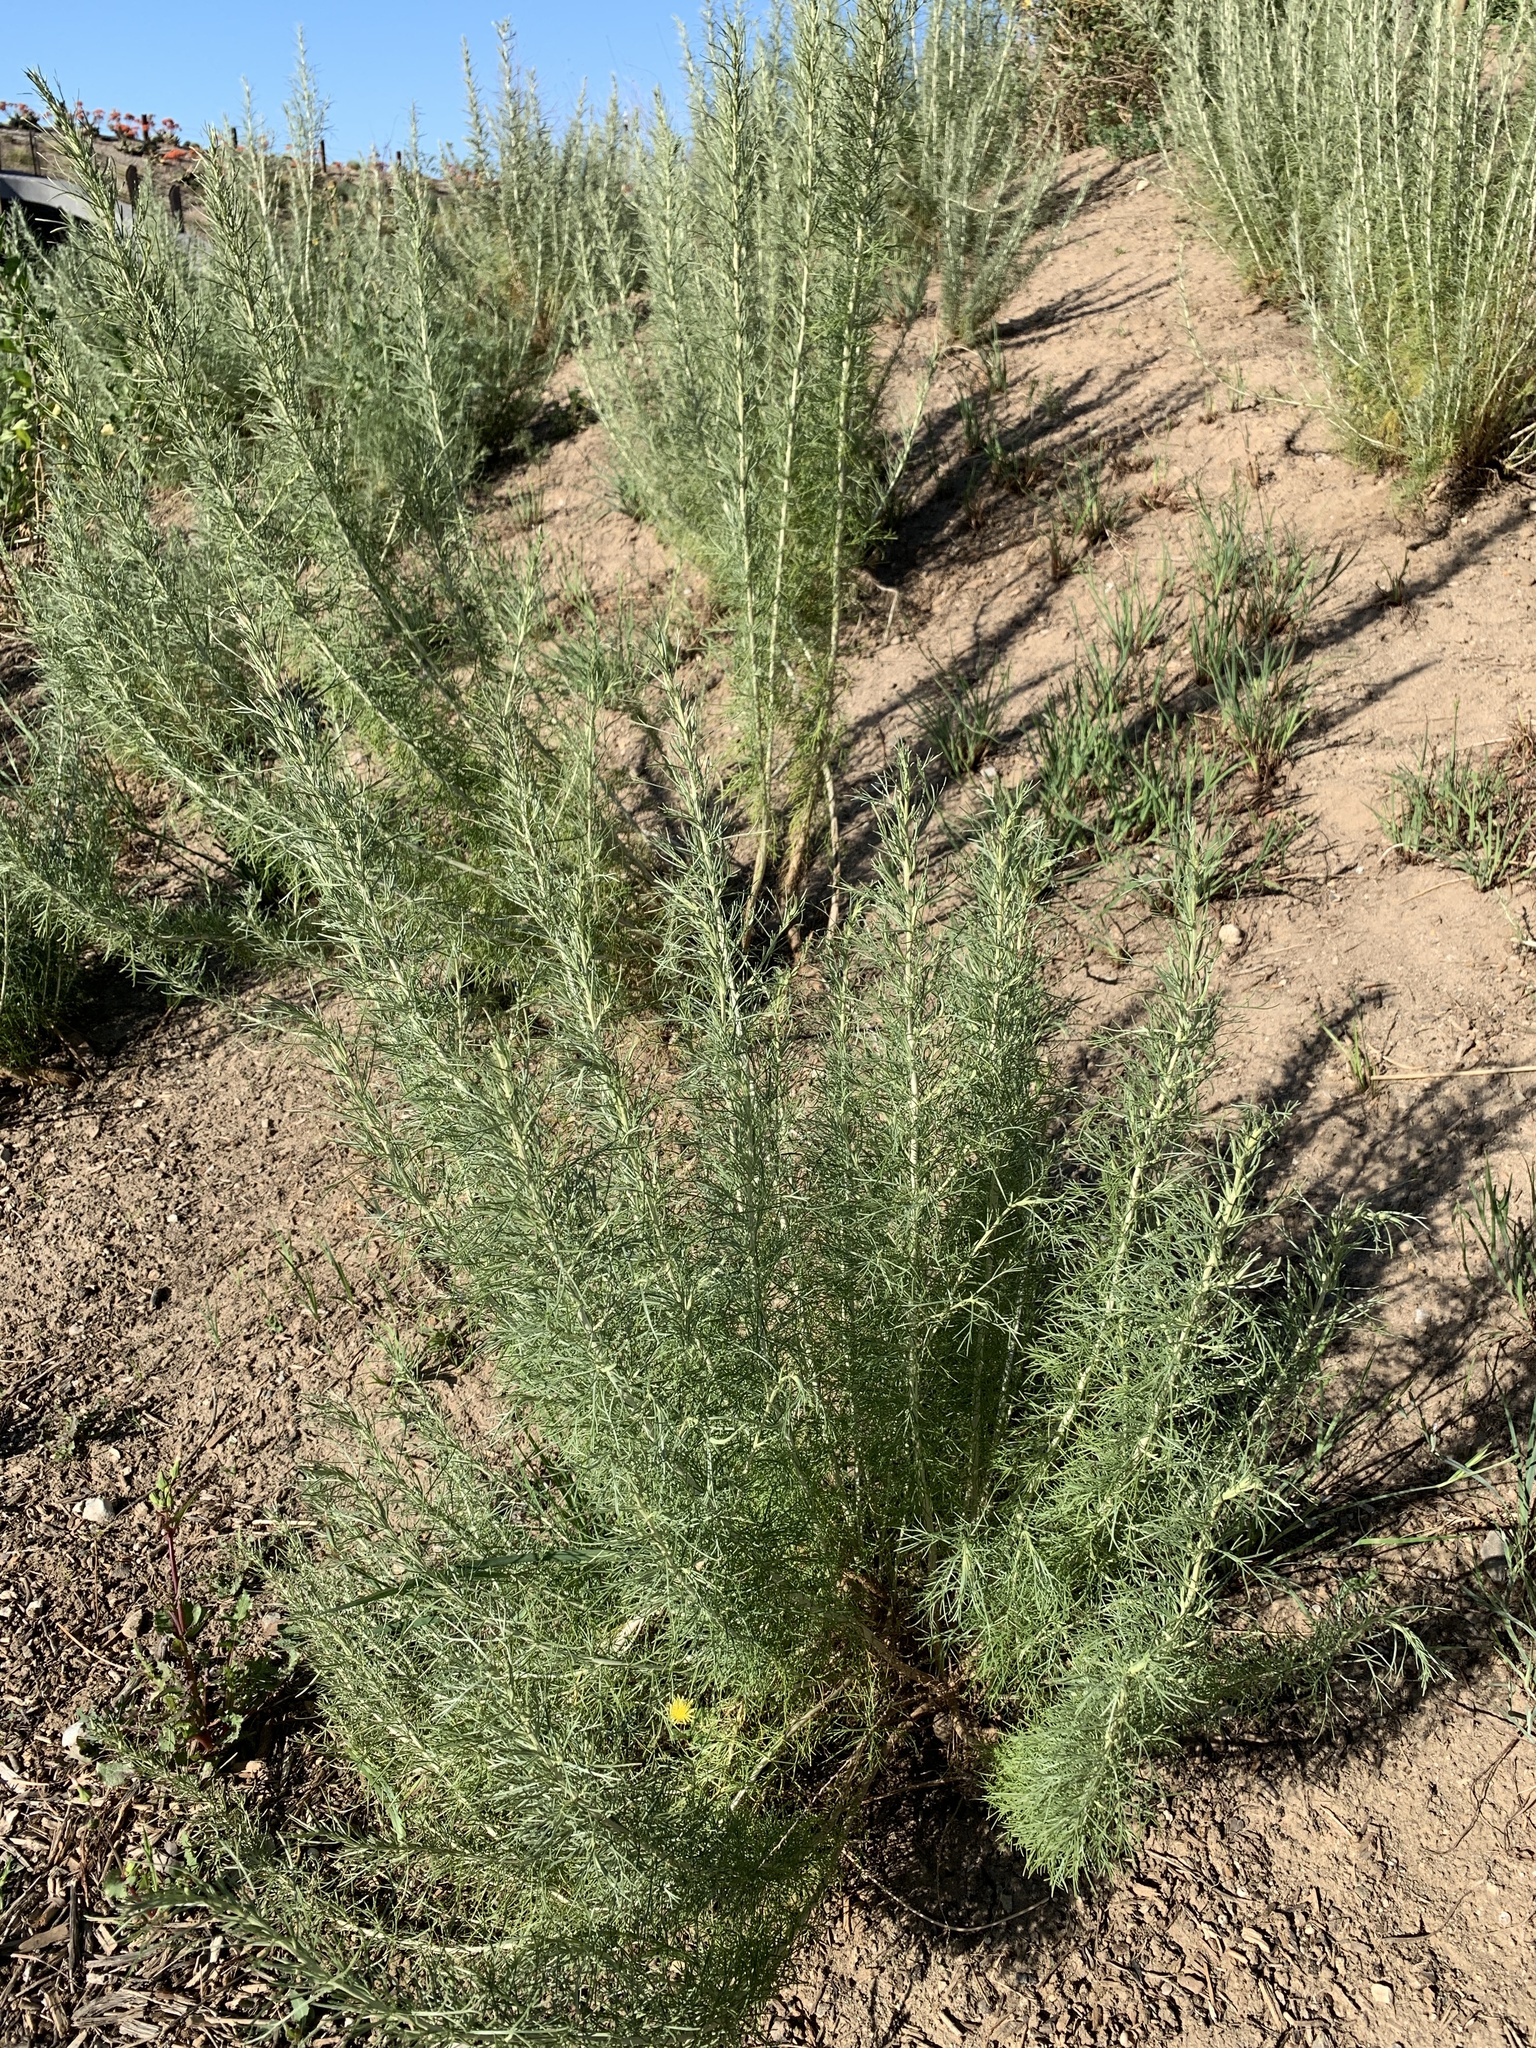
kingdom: Plantae
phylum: Tracheophyta
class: Magnoliopsida
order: Asterales
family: Asteraceae
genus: Artemisia
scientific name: Artemisia californica
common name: California sagebrush
